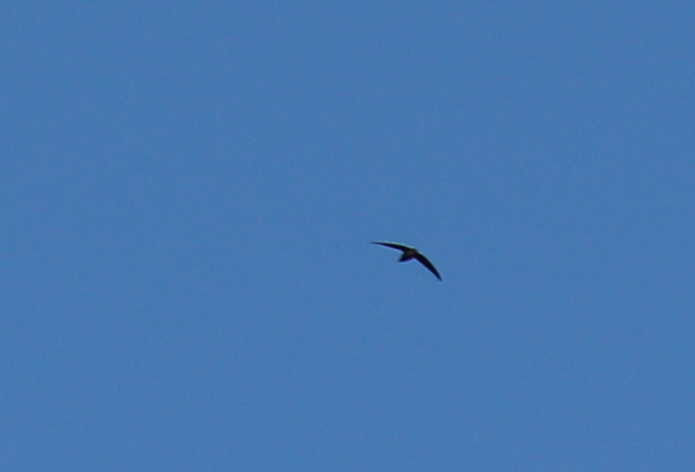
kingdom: Animalia
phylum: Chordata
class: Aves
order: Apodiformes
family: Apodidae
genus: Chaetura
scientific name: Chaetura pelagica
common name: Chimney swift
